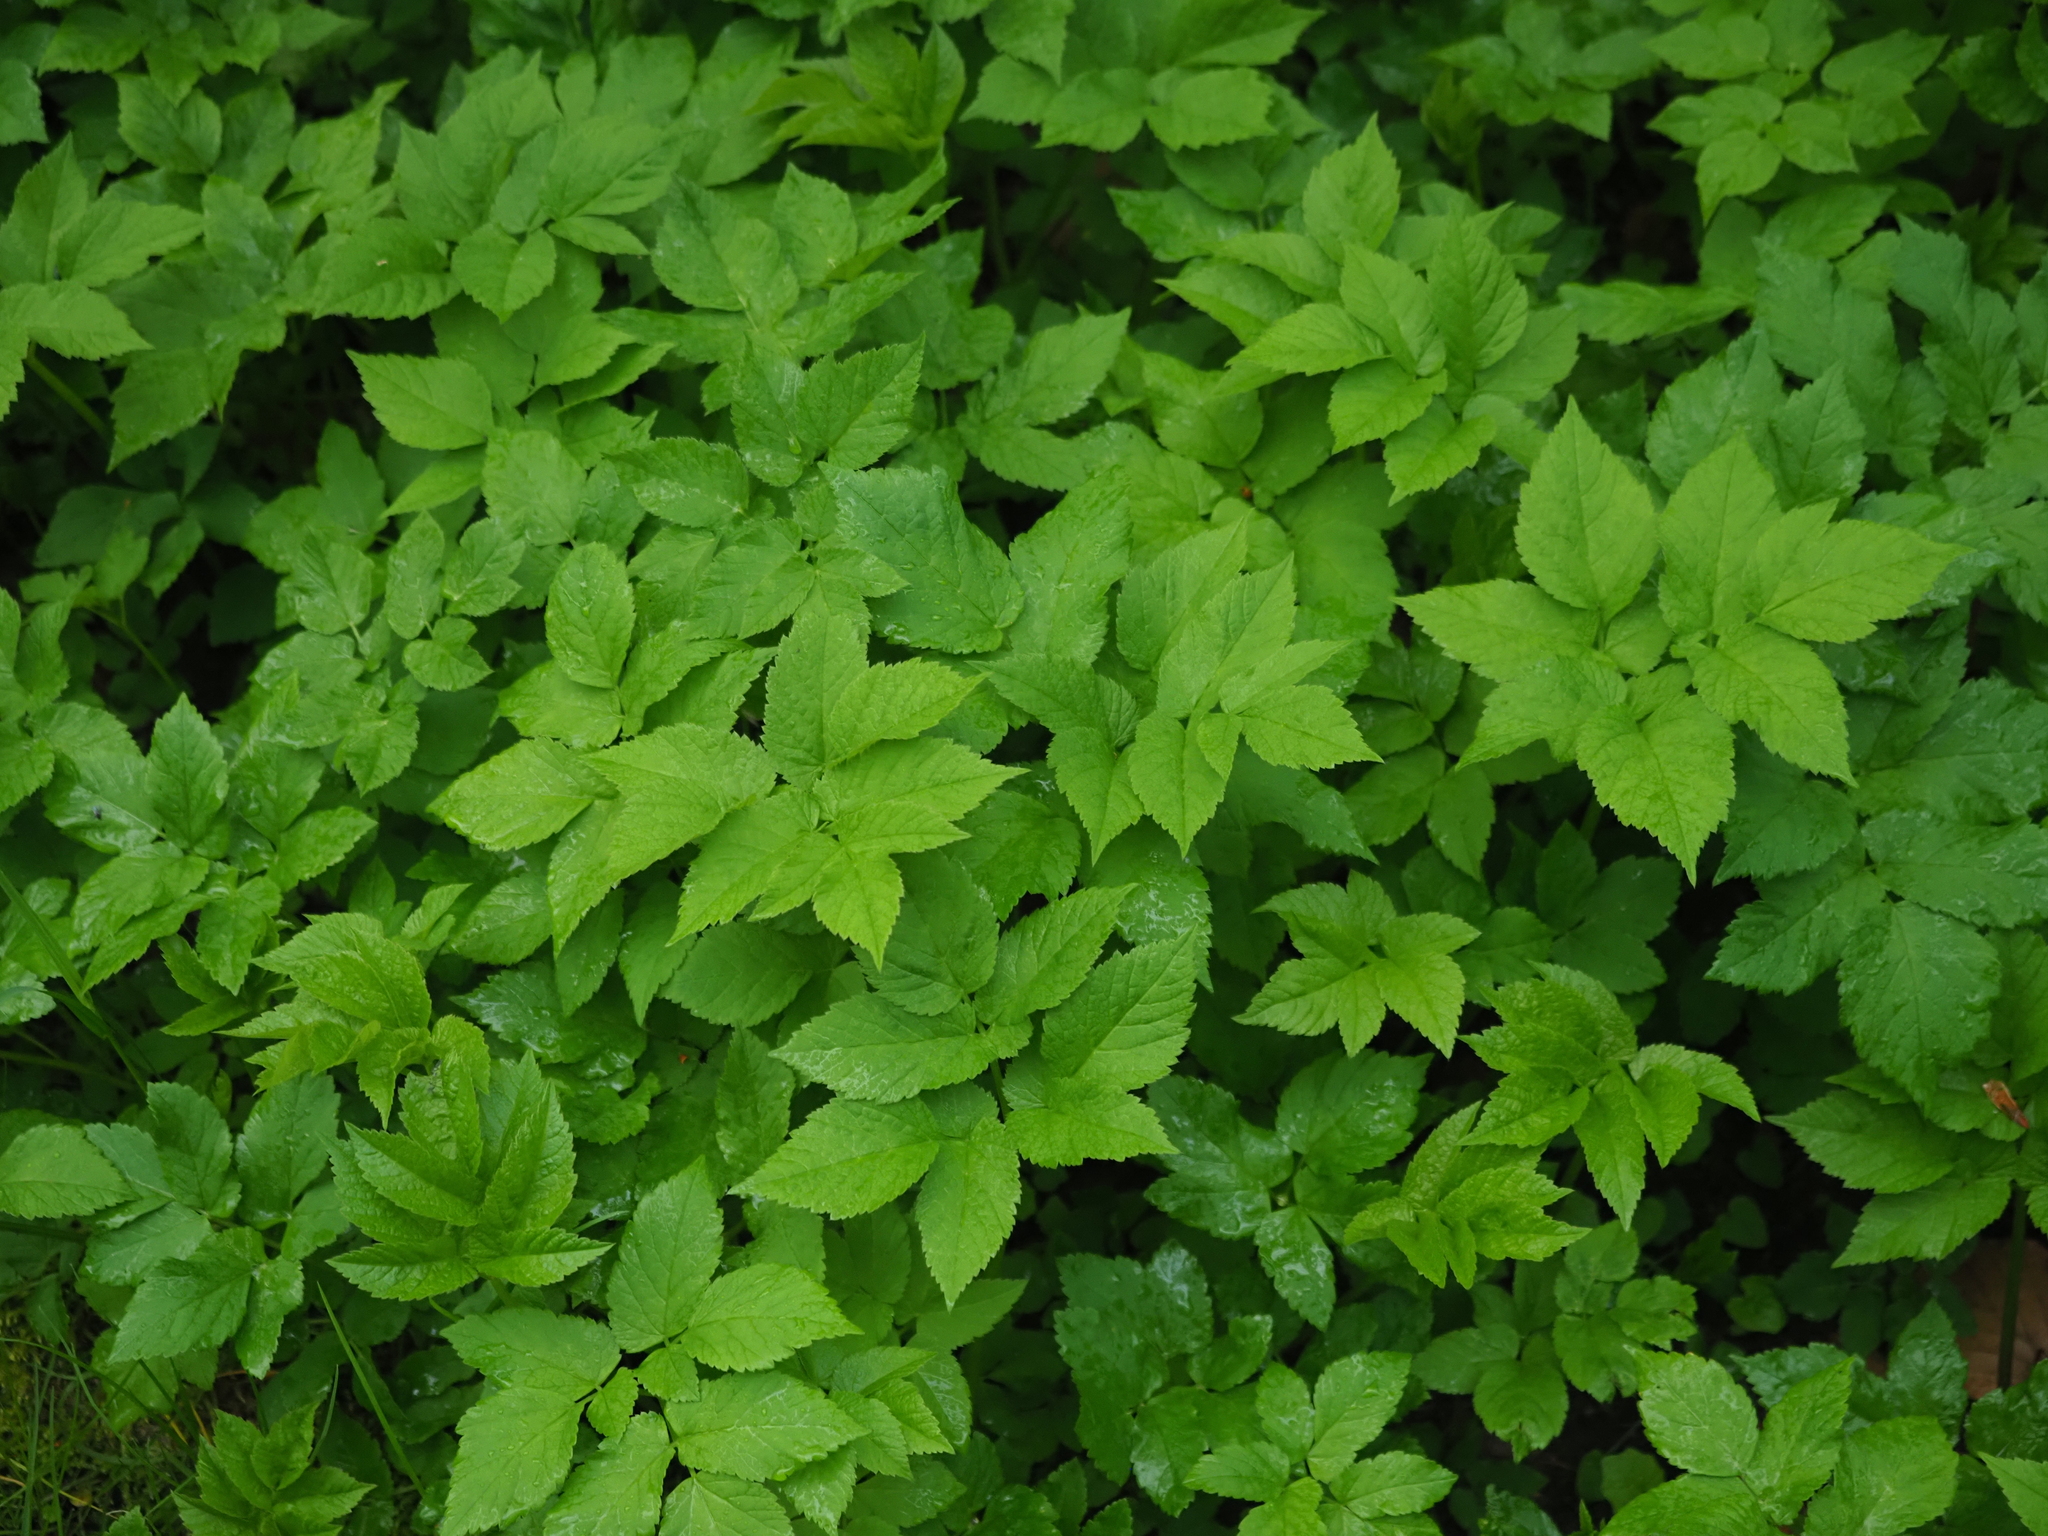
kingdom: Plantae
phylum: Tracheophyta
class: Magnoliopsida
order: Apiales
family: Apiaceae
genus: Aegopodium
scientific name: Aegopodium podagraria
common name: Ground-elder
